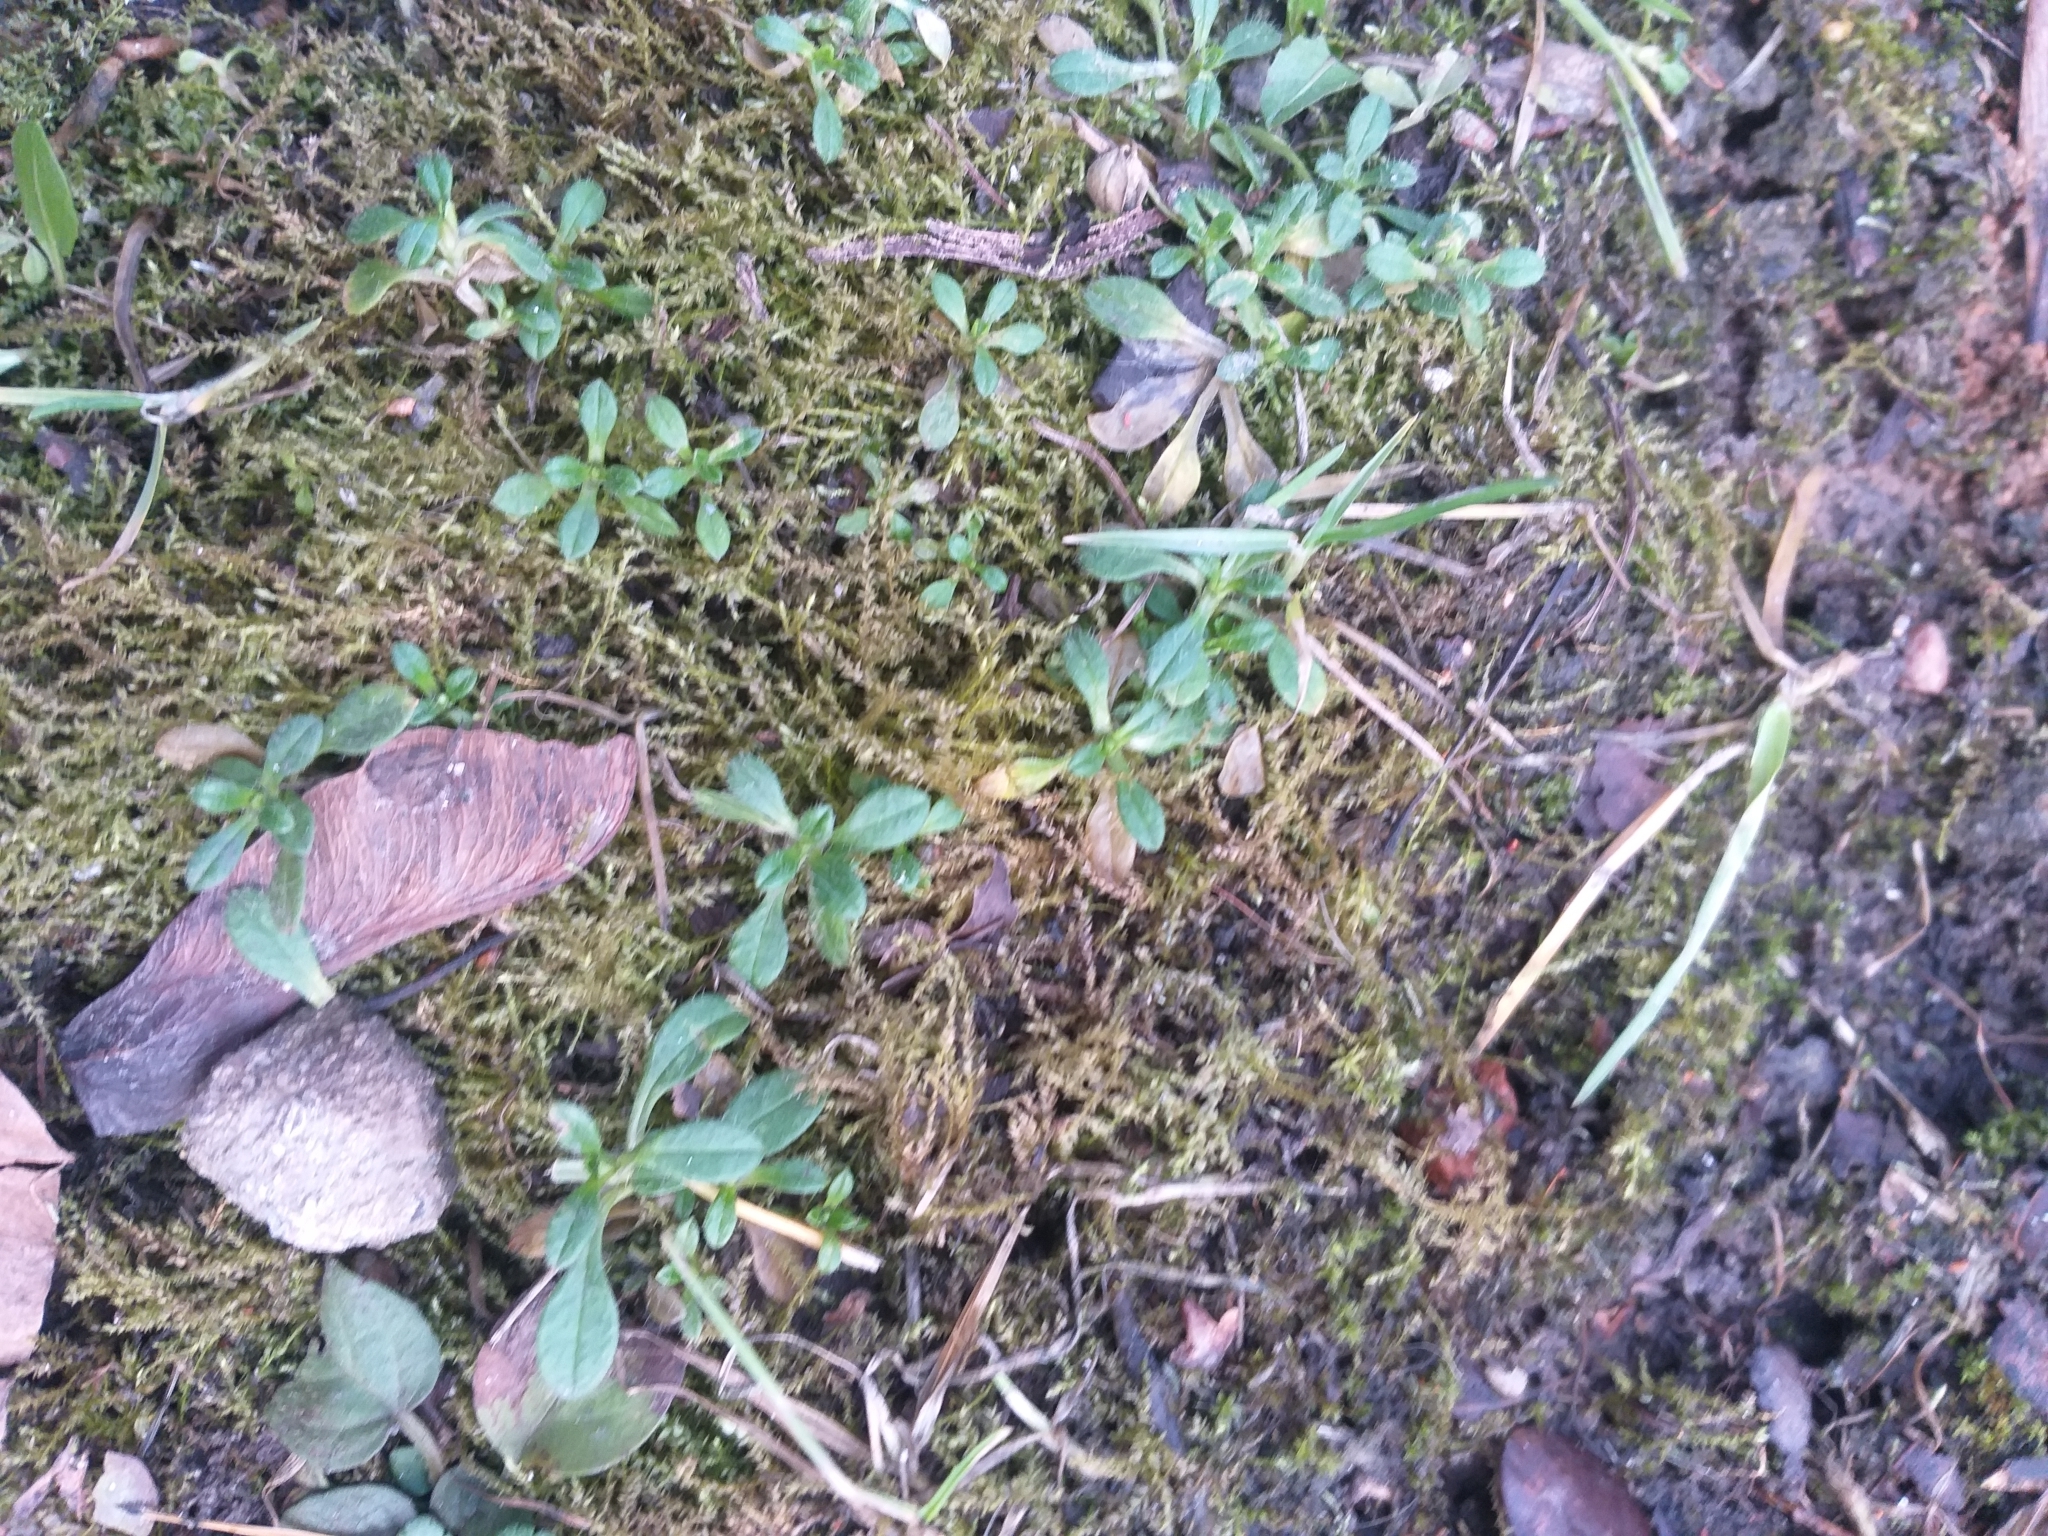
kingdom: Plantae
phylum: Tracheophyta
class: Magnoliopsida
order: Caryophyllales
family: Caryophyllaceae
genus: Cerastium
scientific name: Cerastium holosteoides
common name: Big chickweed
